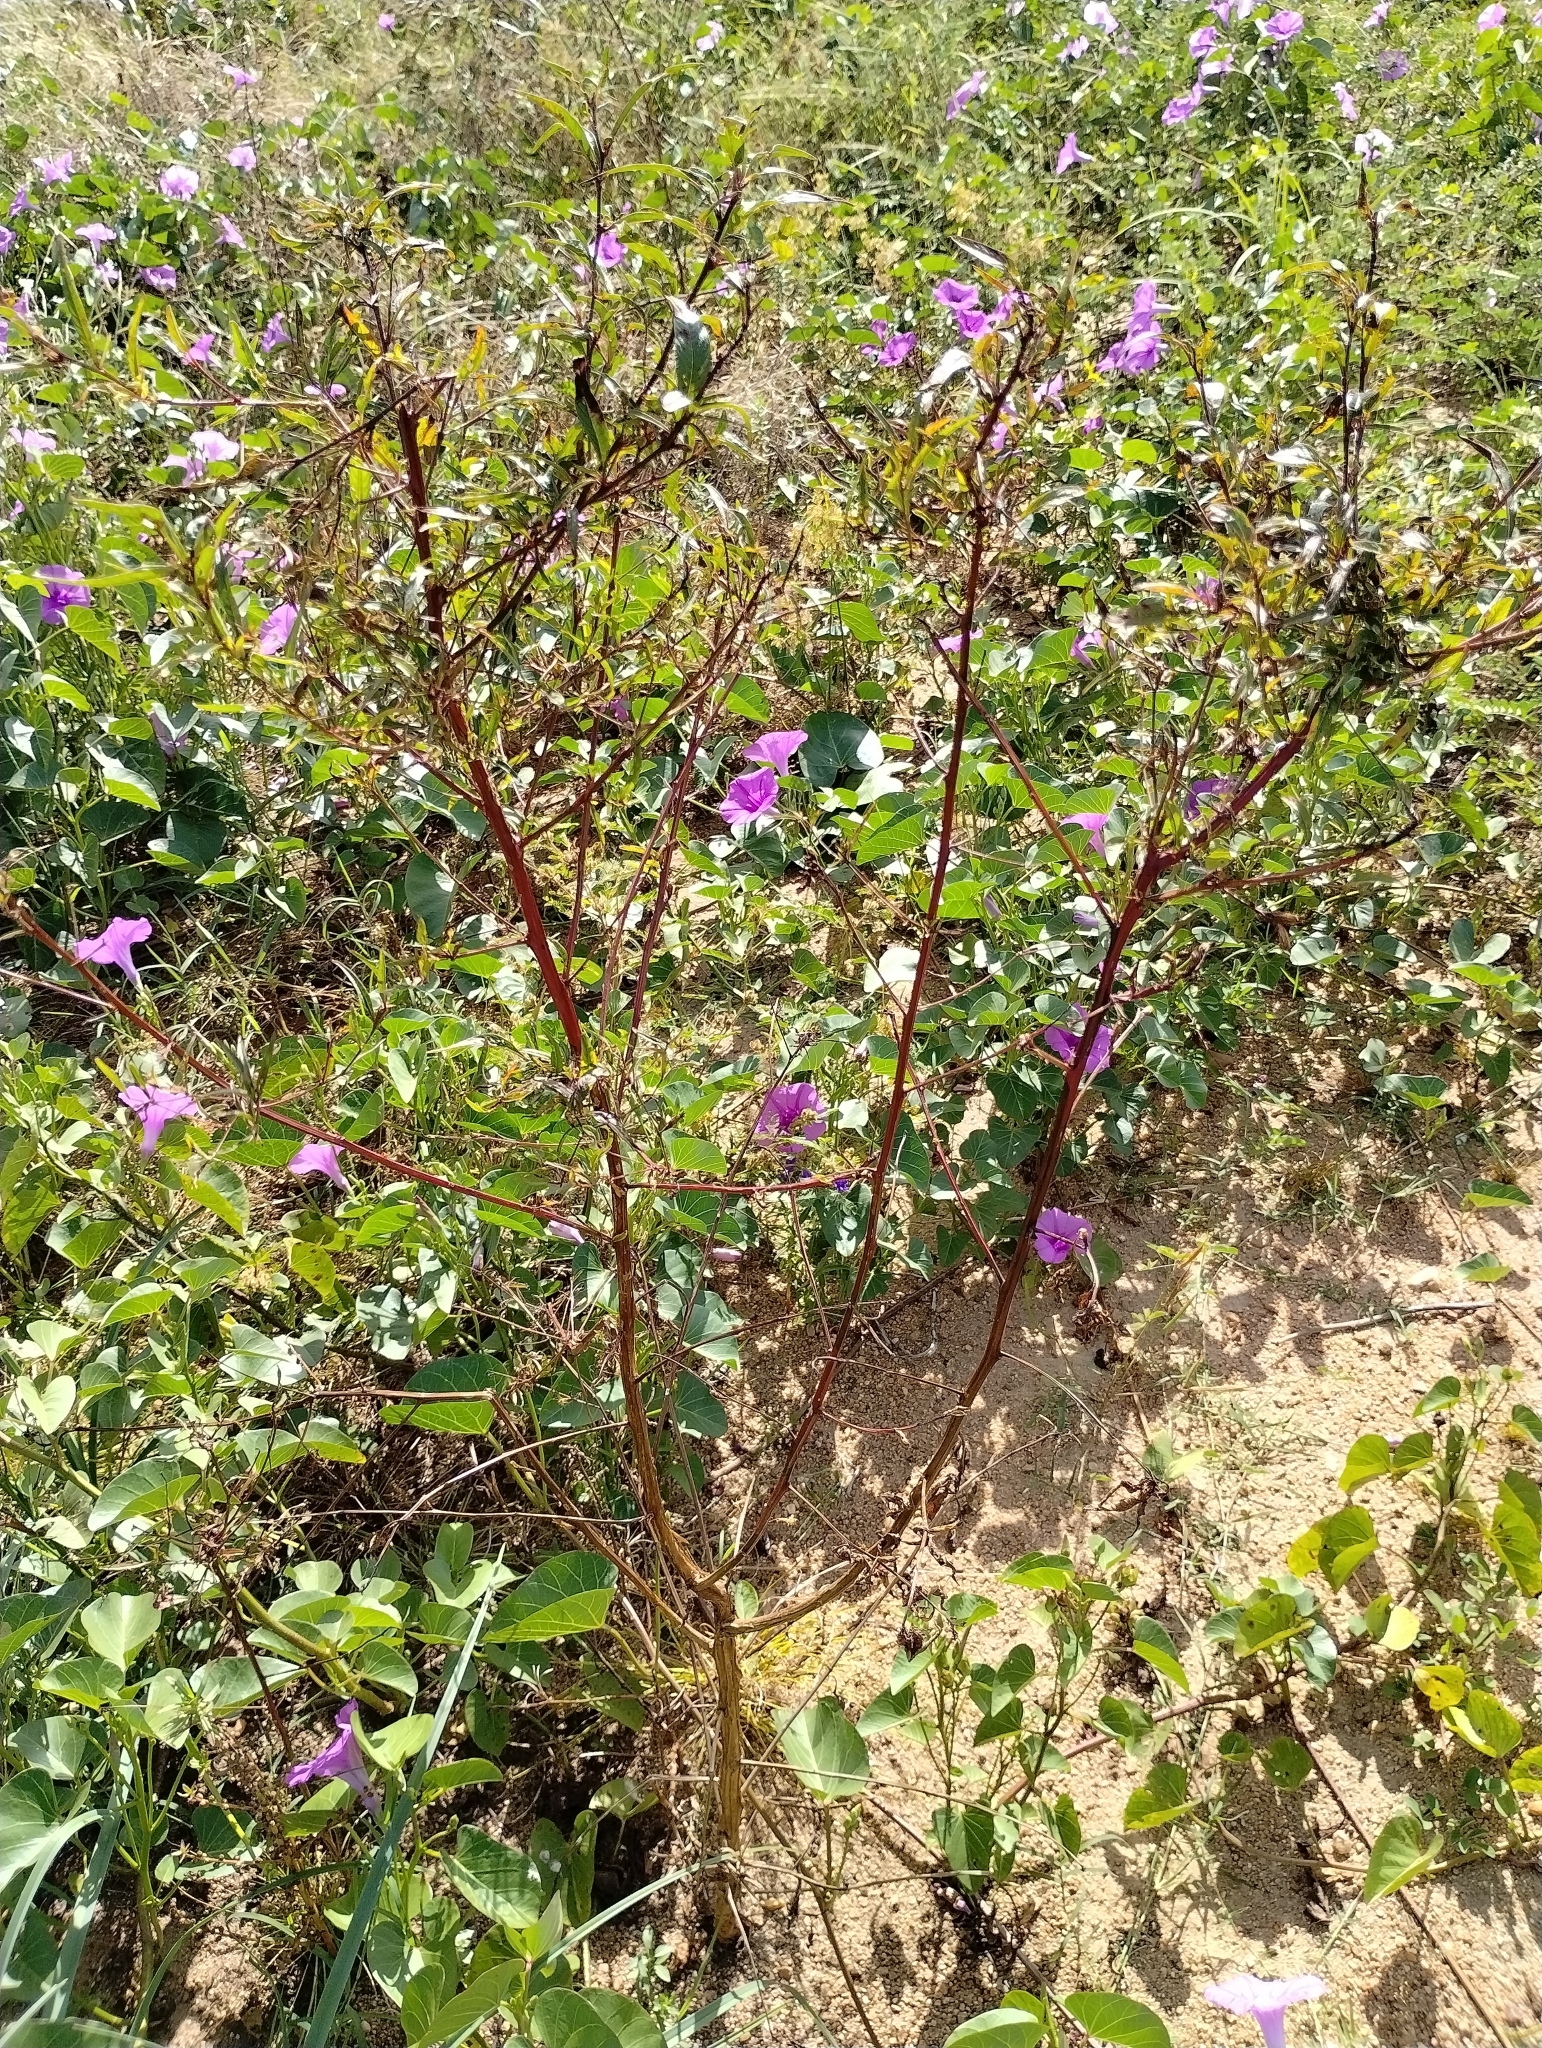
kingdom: Plantae
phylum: Tracheophyta
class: Magnoliopsida
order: Myrtales
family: Onagraceae
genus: Ludwigia
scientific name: Ludwigia erecta
